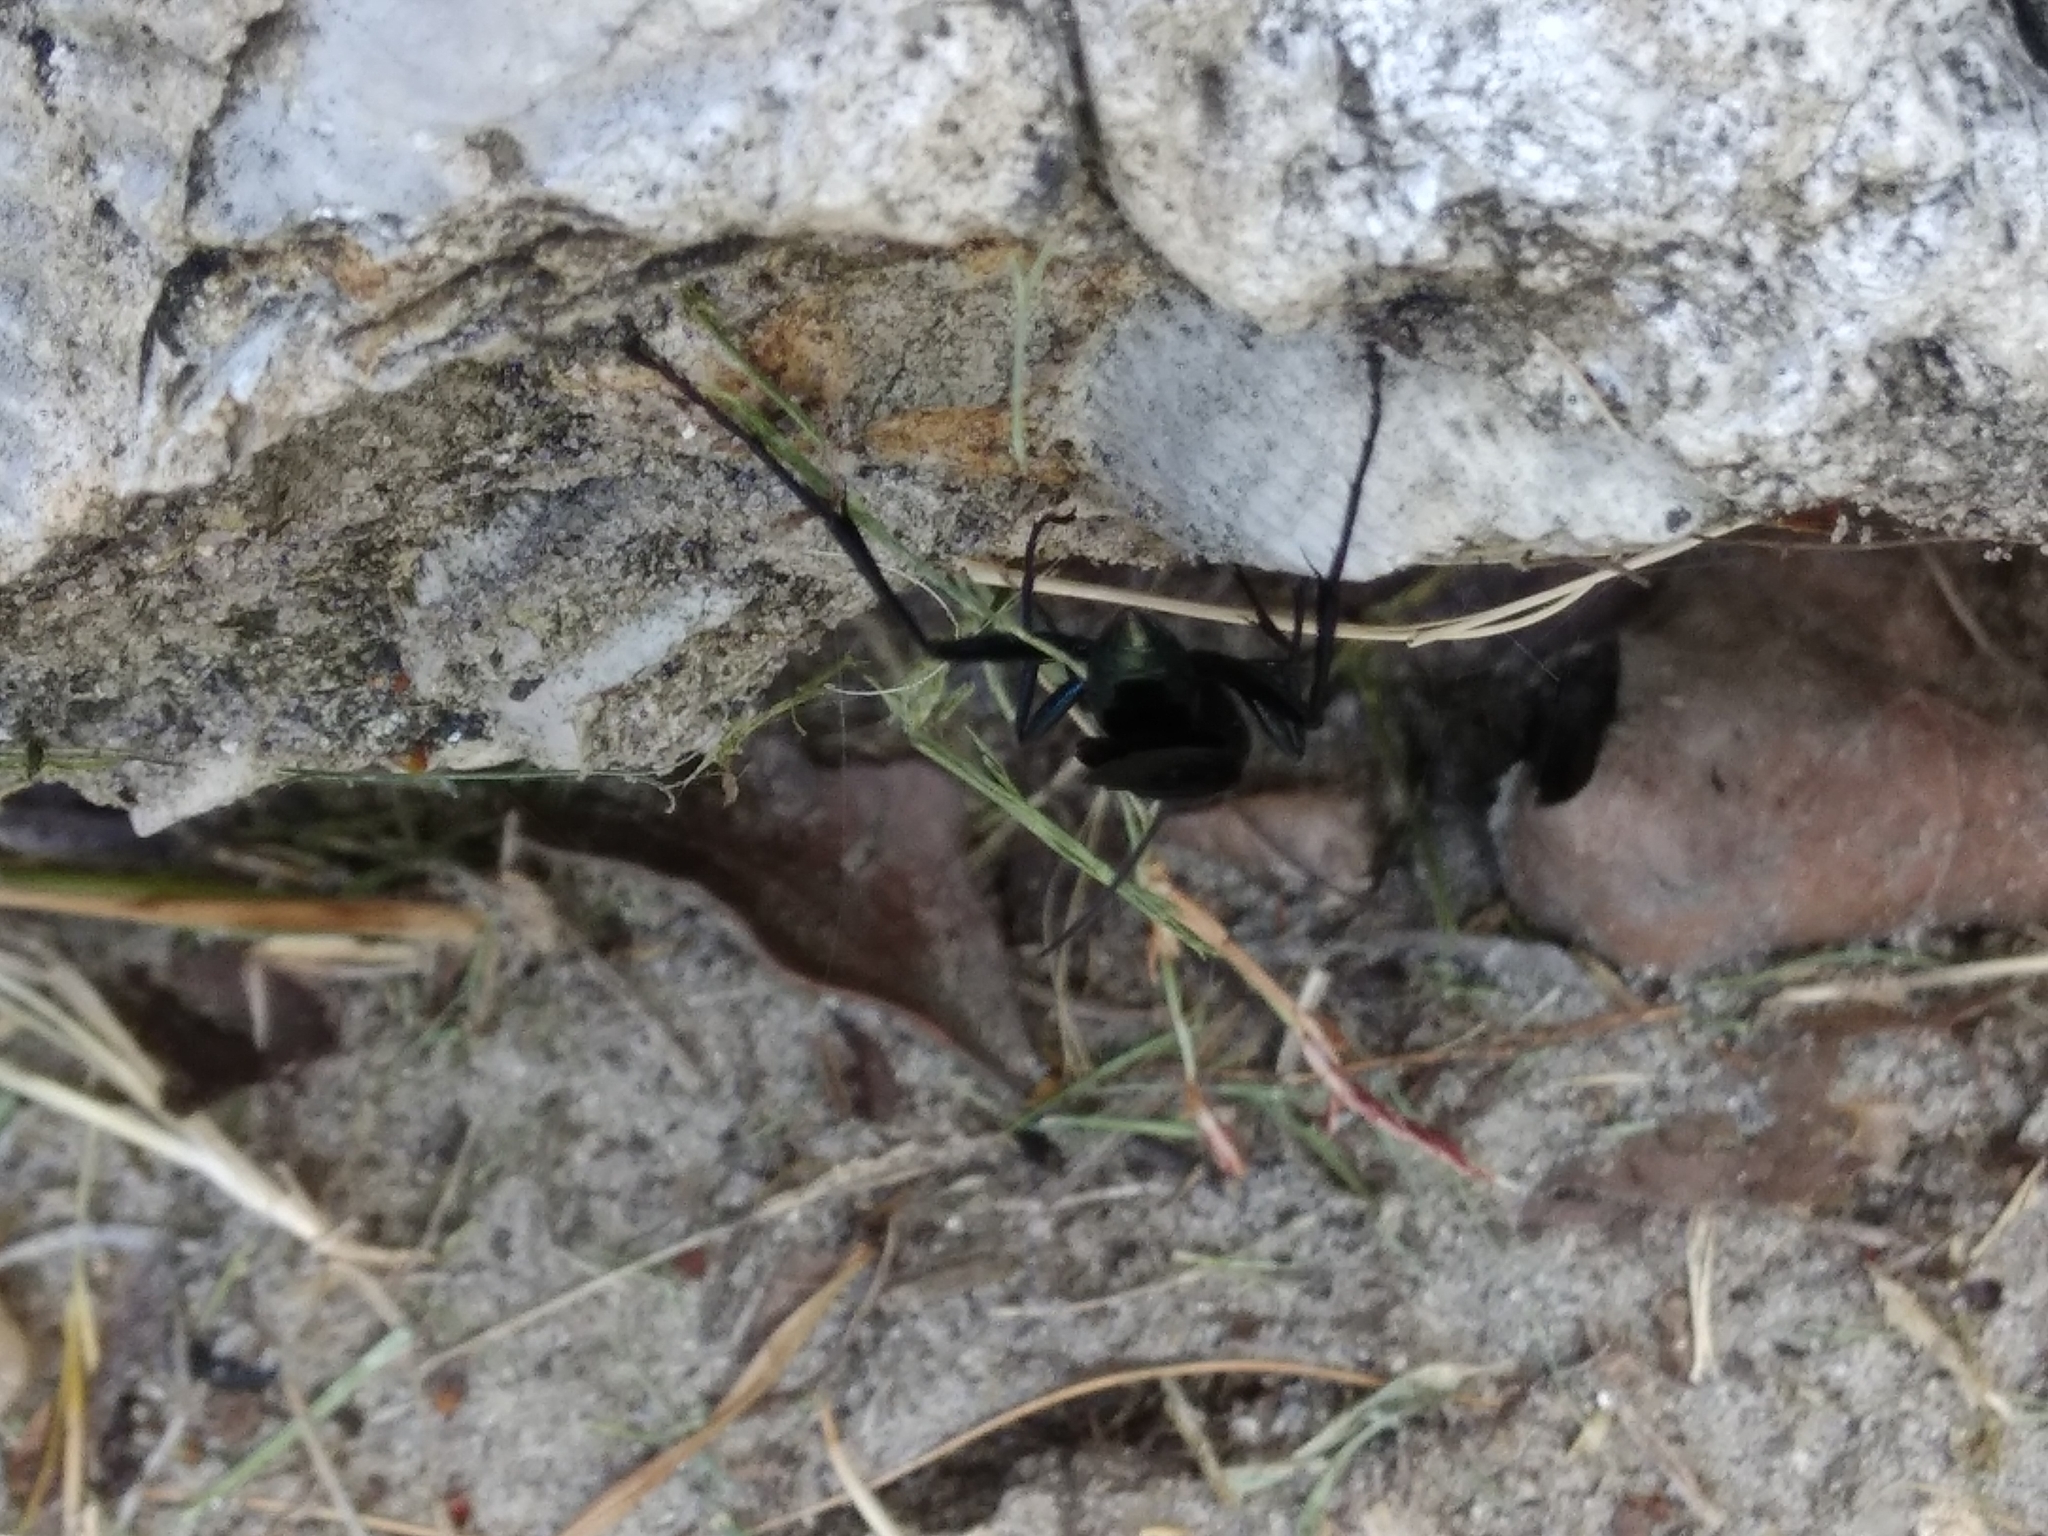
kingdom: Animalia
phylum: Arthropoda
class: Insecta
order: Hymenoptera
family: Sphecidae
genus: Chalybion
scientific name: Chalybion californicum
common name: Mud dauber
